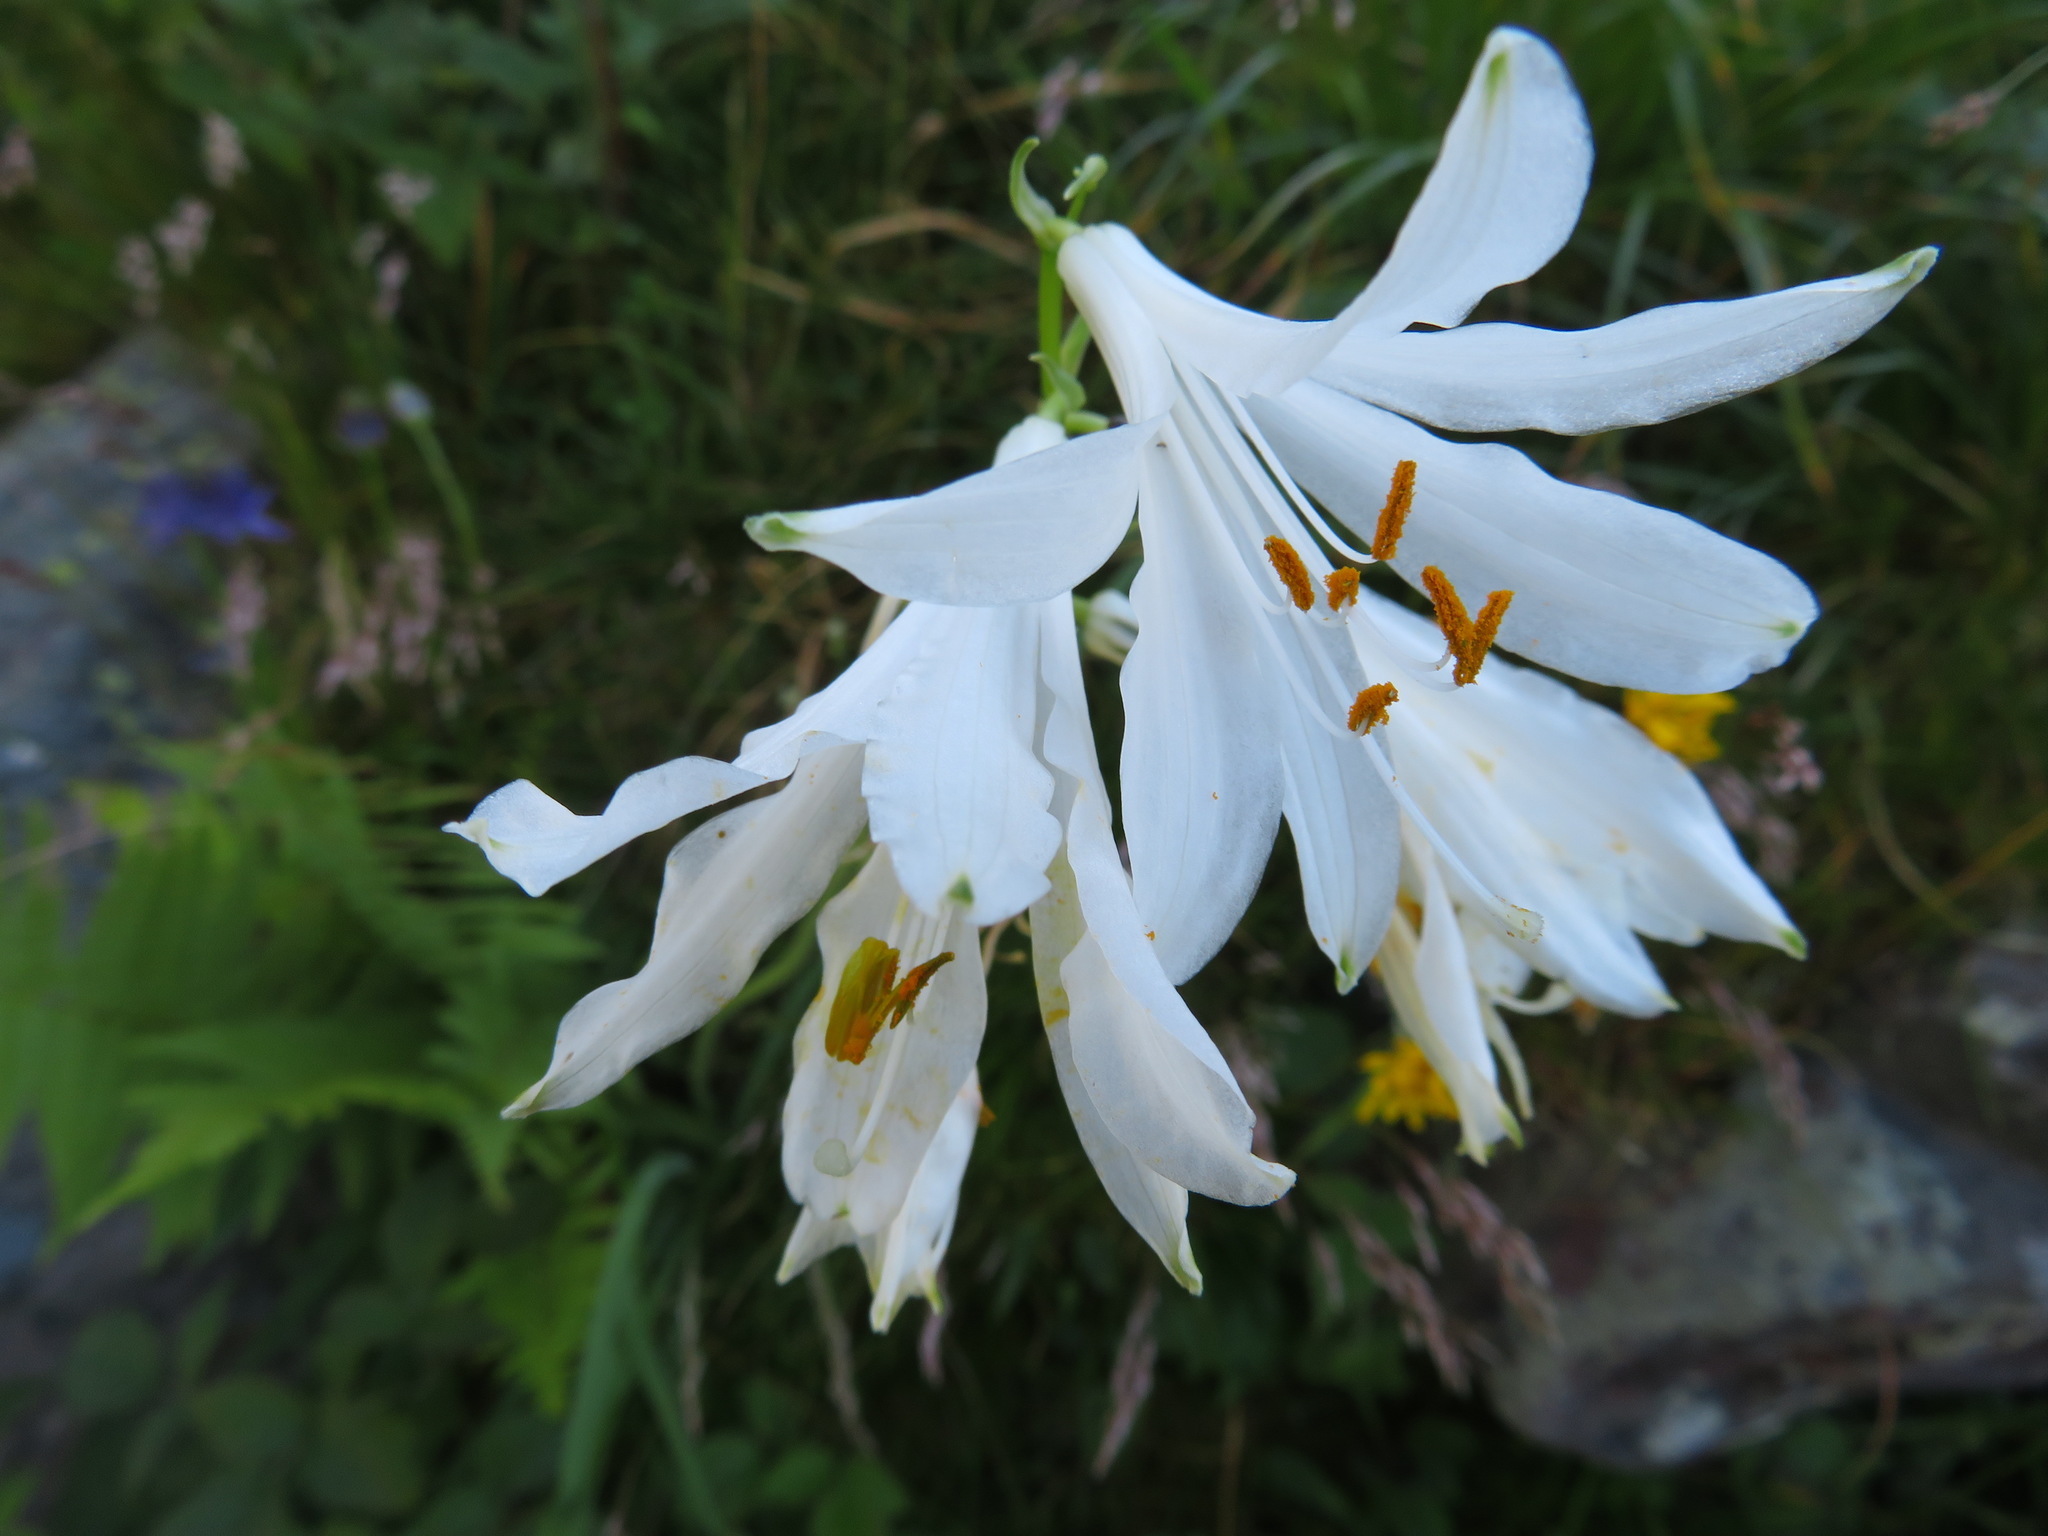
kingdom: Plantae
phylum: Tracheophyta
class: Liliopsida
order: Asparagales
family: Asparagaceae
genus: Paradisea
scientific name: Paradisea liliastrum
